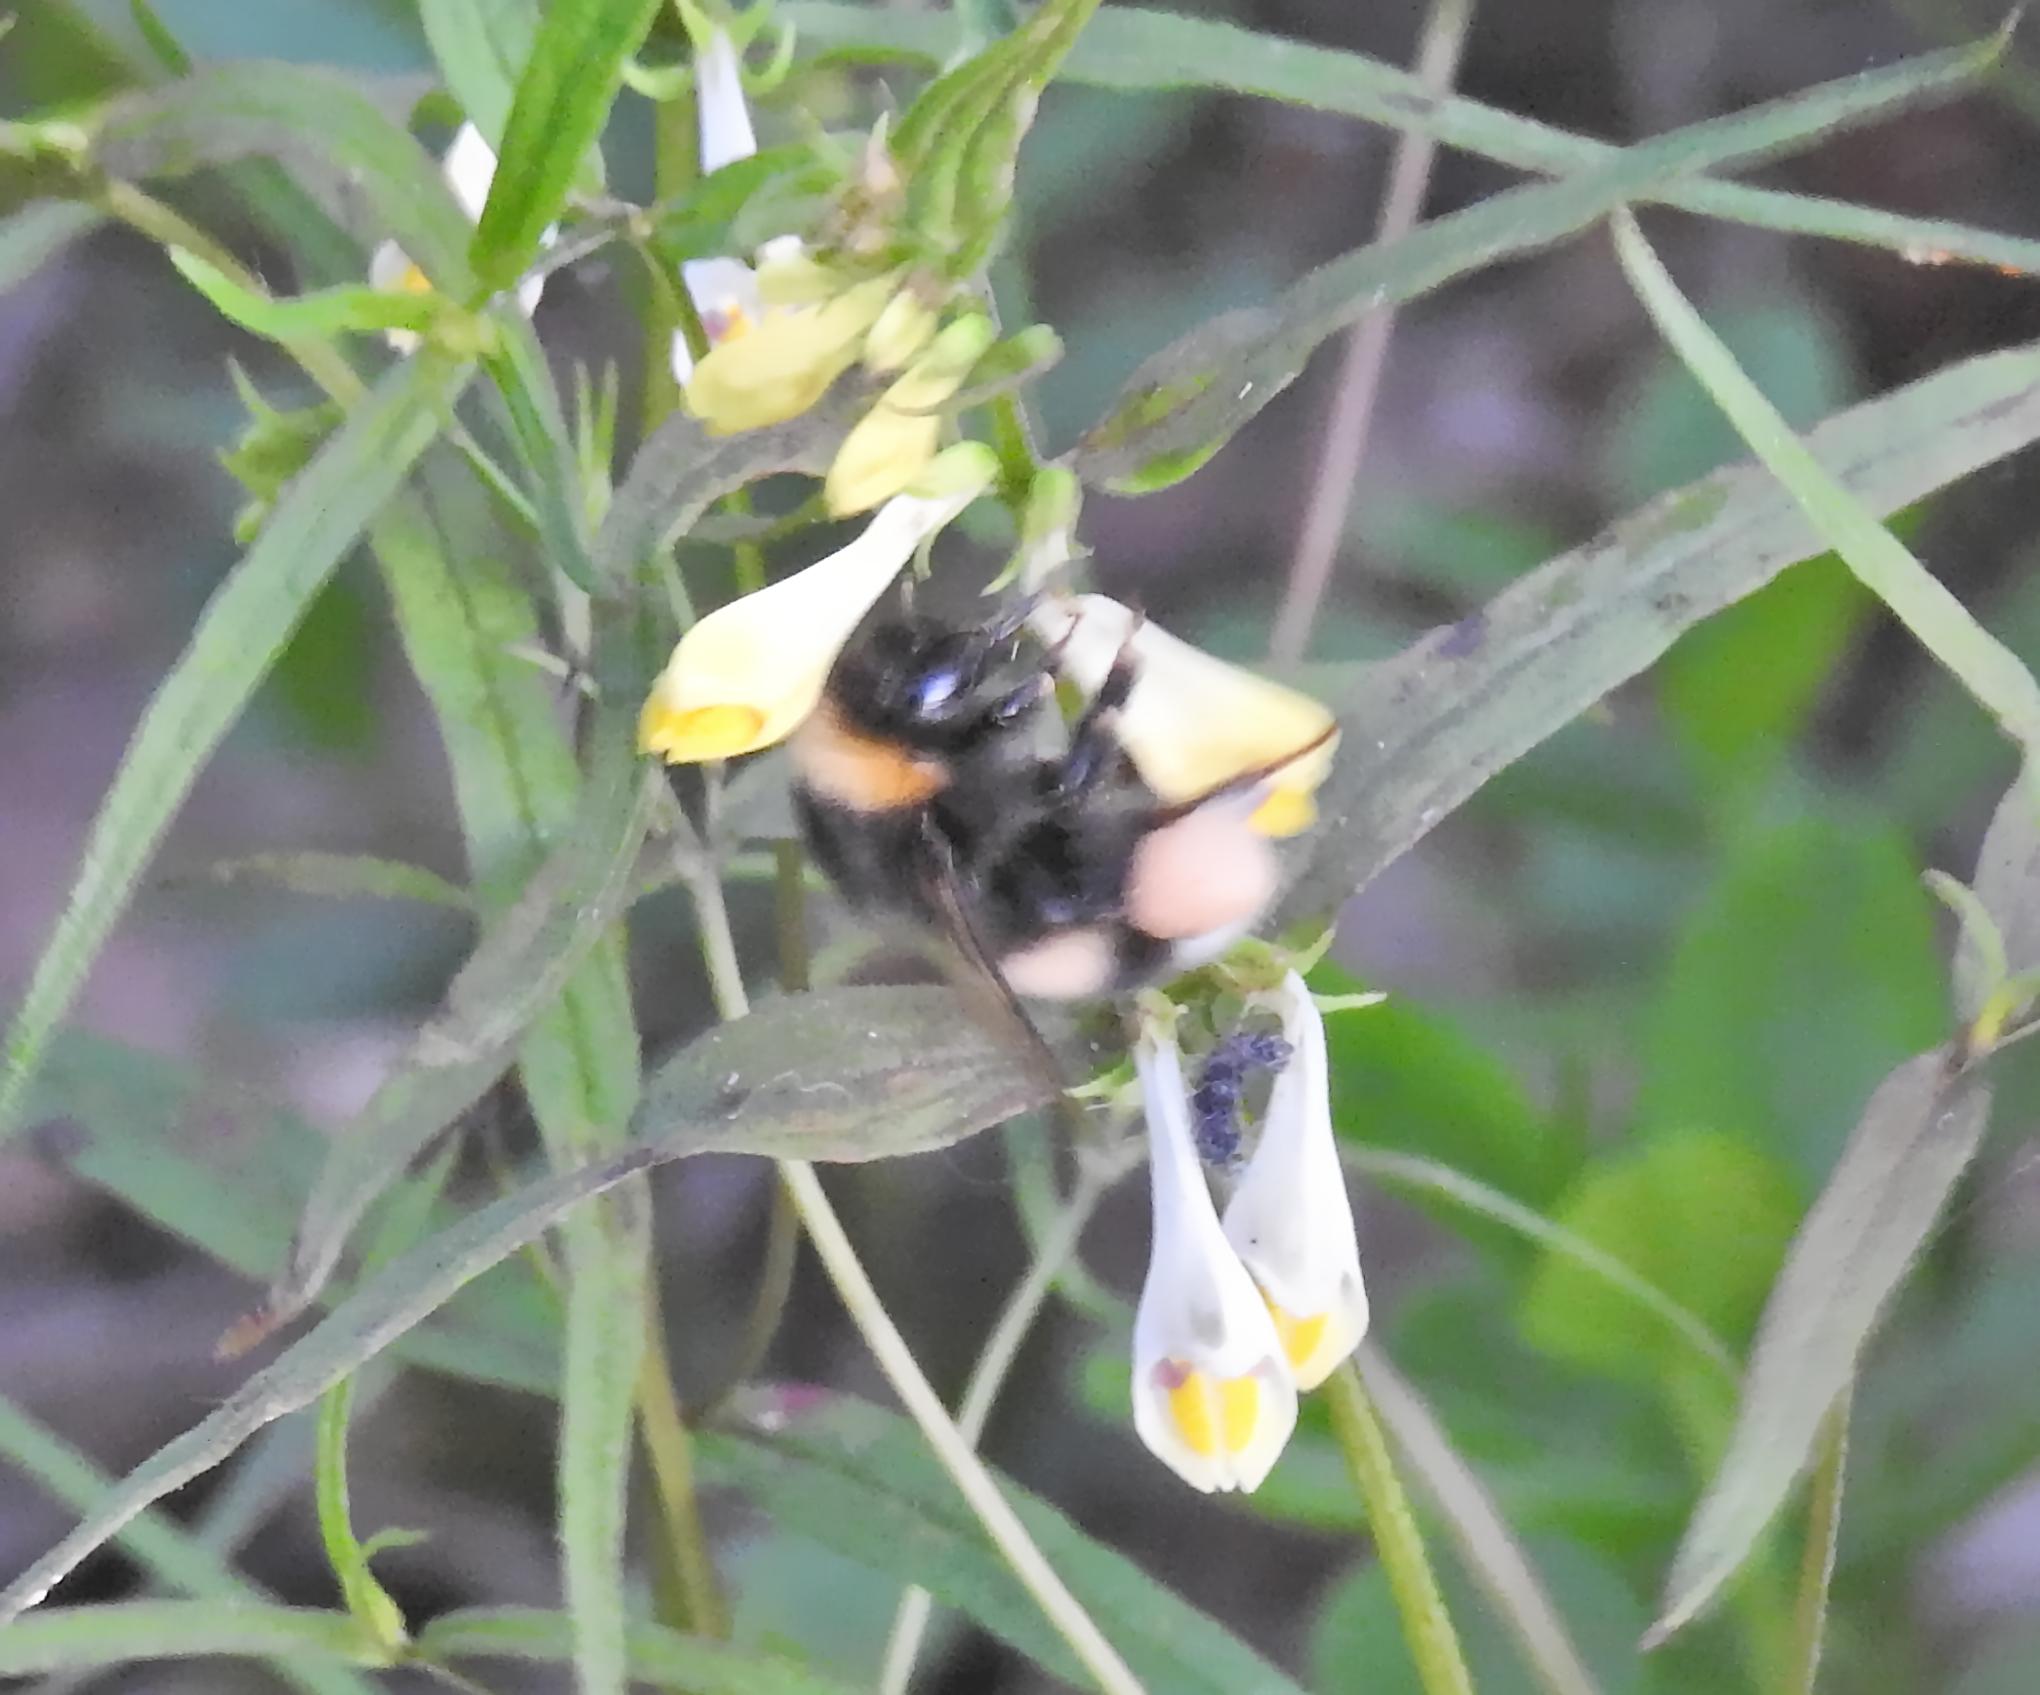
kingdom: Animalia
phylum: Arthropoda
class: Insecta
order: Hymenoptera
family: Apidae
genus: Bombus
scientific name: Bombus
